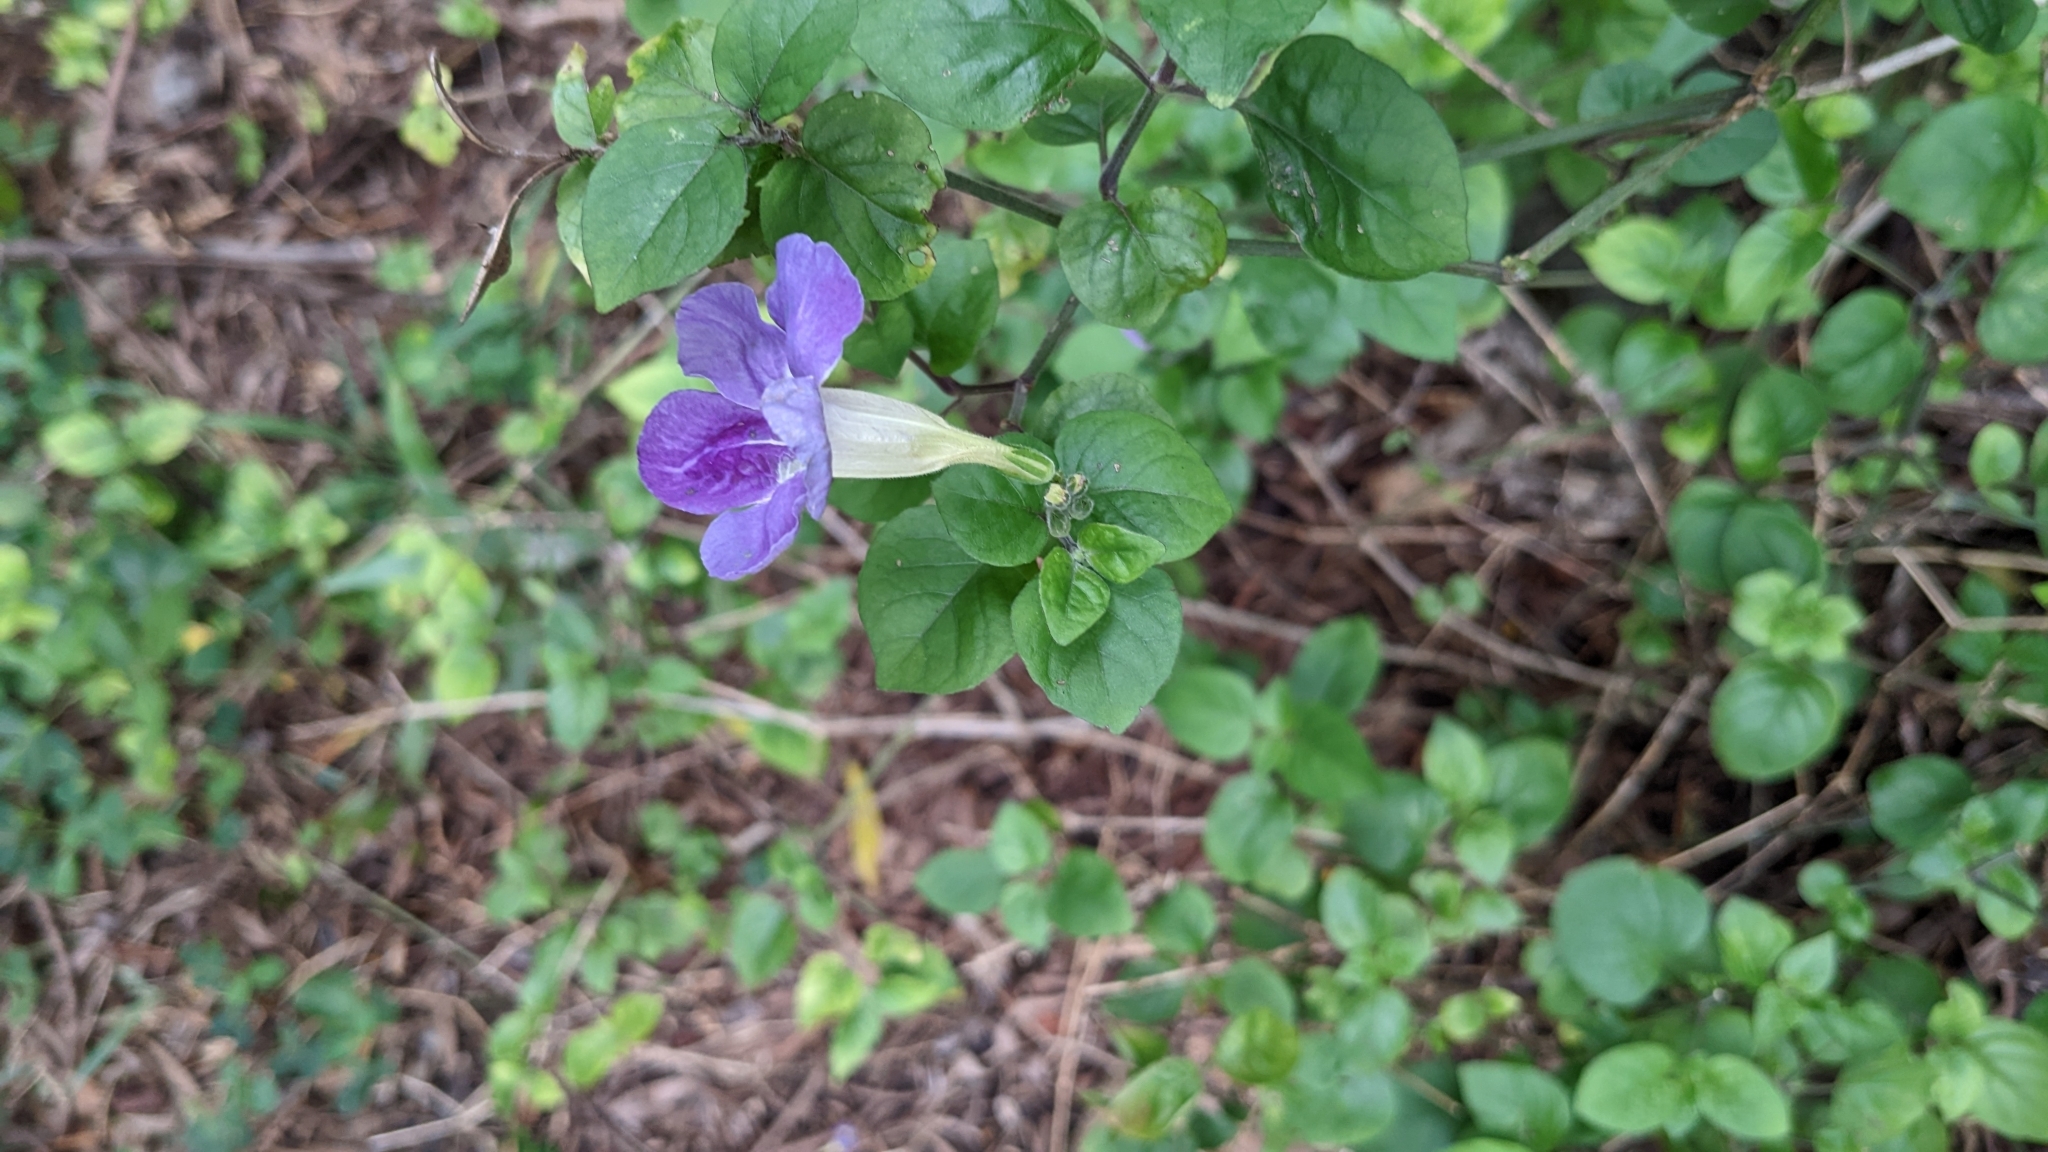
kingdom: Plantae
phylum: Tracheophyta
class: Magnoliopsida
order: Lamiales
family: Acanthaceae
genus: Asystasia
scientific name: Asystasia gangetica
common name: Chinese violet
